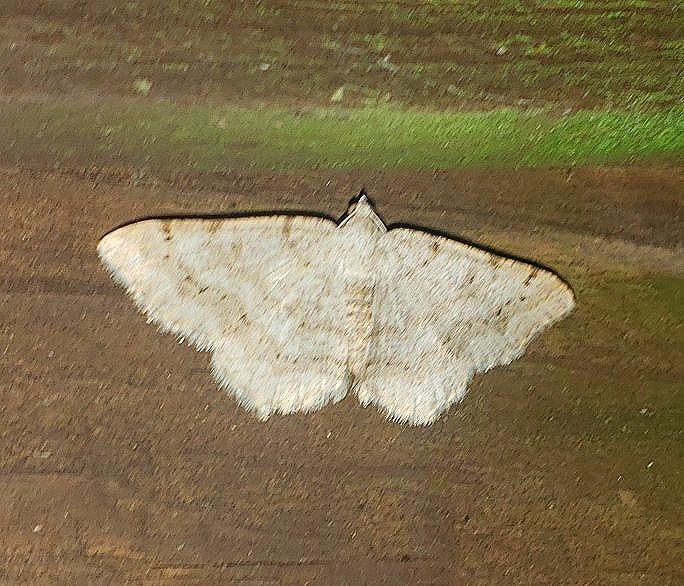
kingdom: Animalia
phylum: Arthropoda
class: Insecta
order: Lepidoptera
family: Geometridae
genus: Digrammia
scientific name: Digrammia ocellinata
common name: Faint-spotted angle
